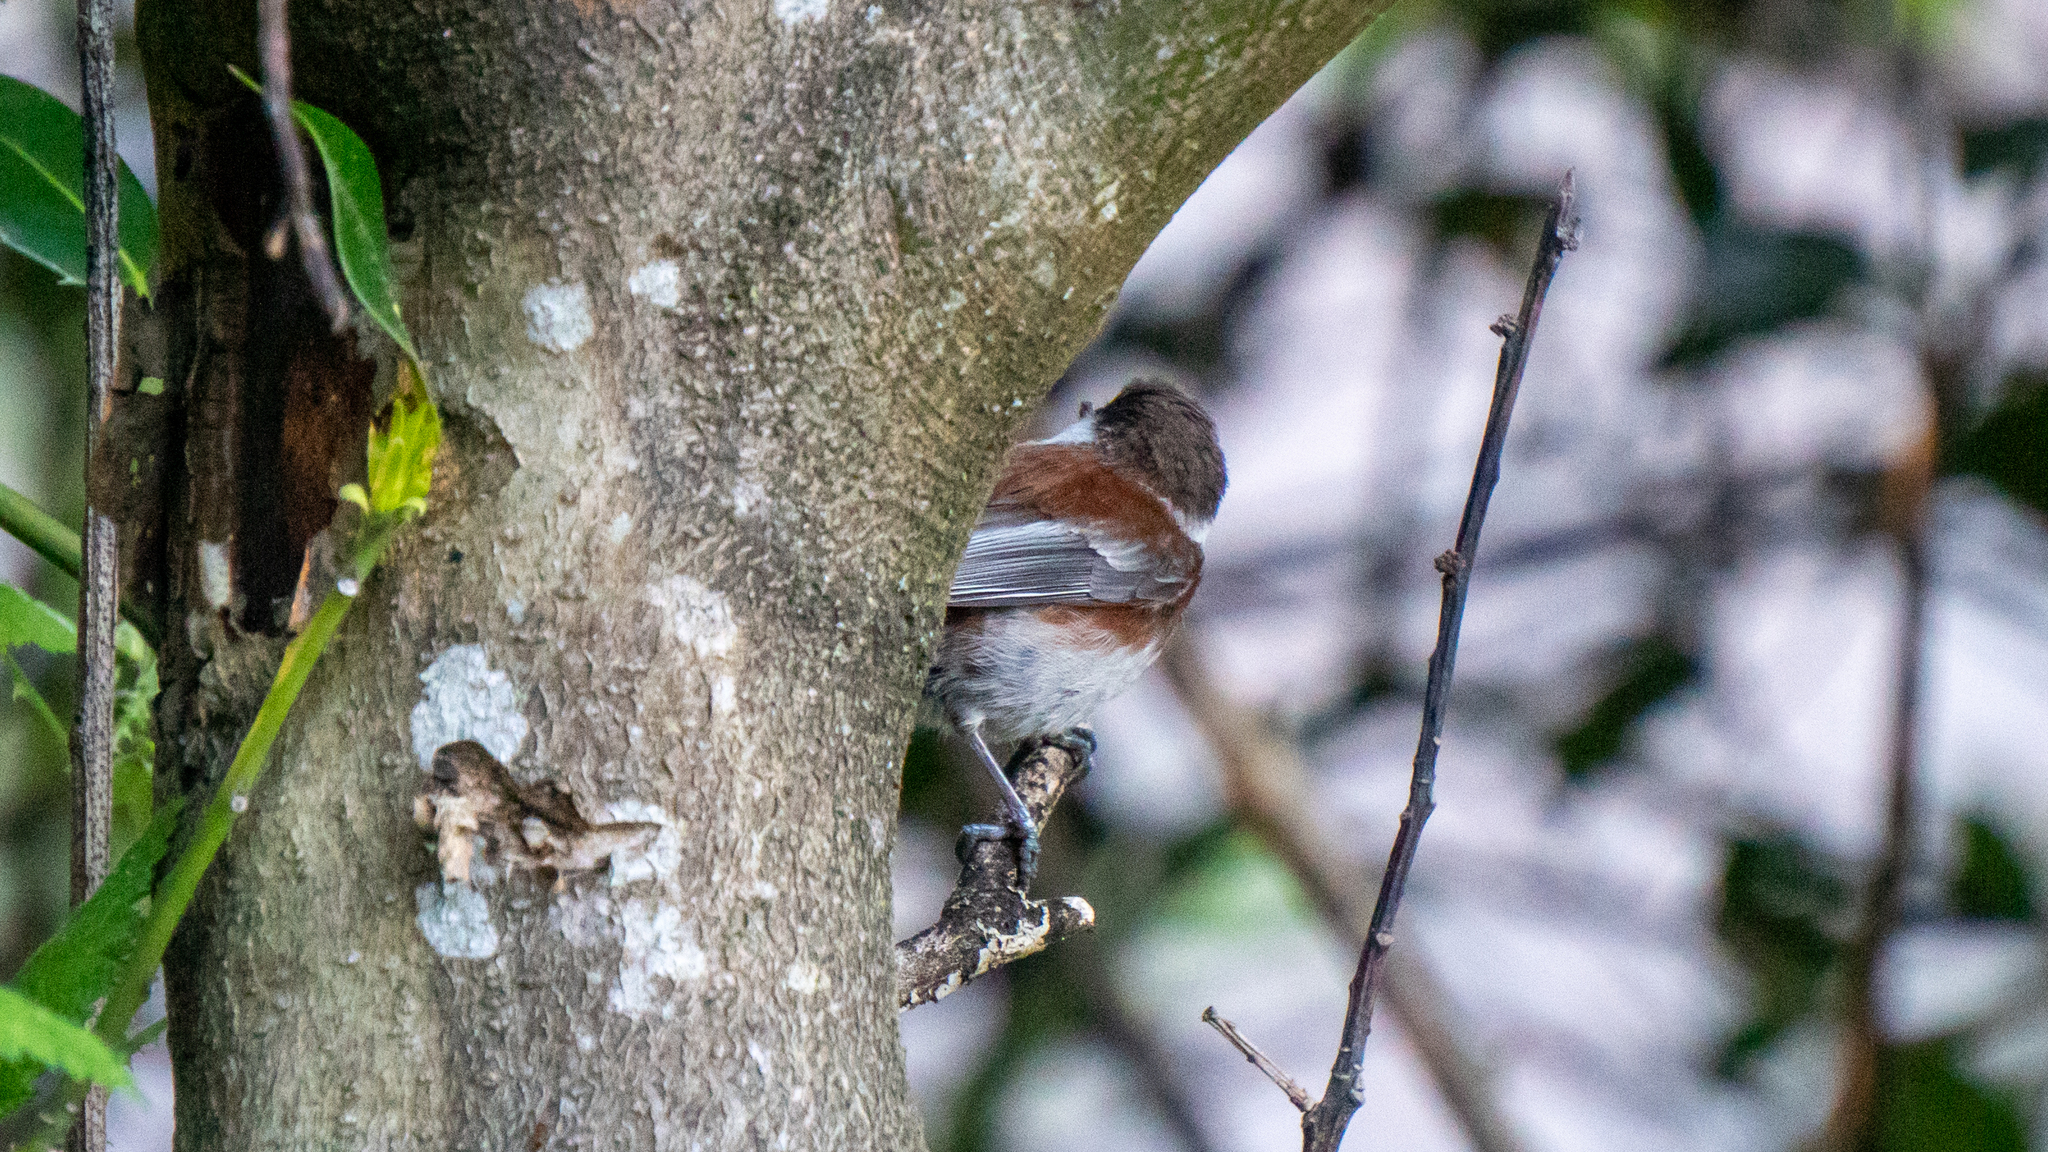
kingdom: Animalia
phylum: Chordata
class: Aves
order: Passeriformes
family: Paridae
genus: Poecile
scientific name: Poecile rufescens
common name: Chestnut-backed chickadee
